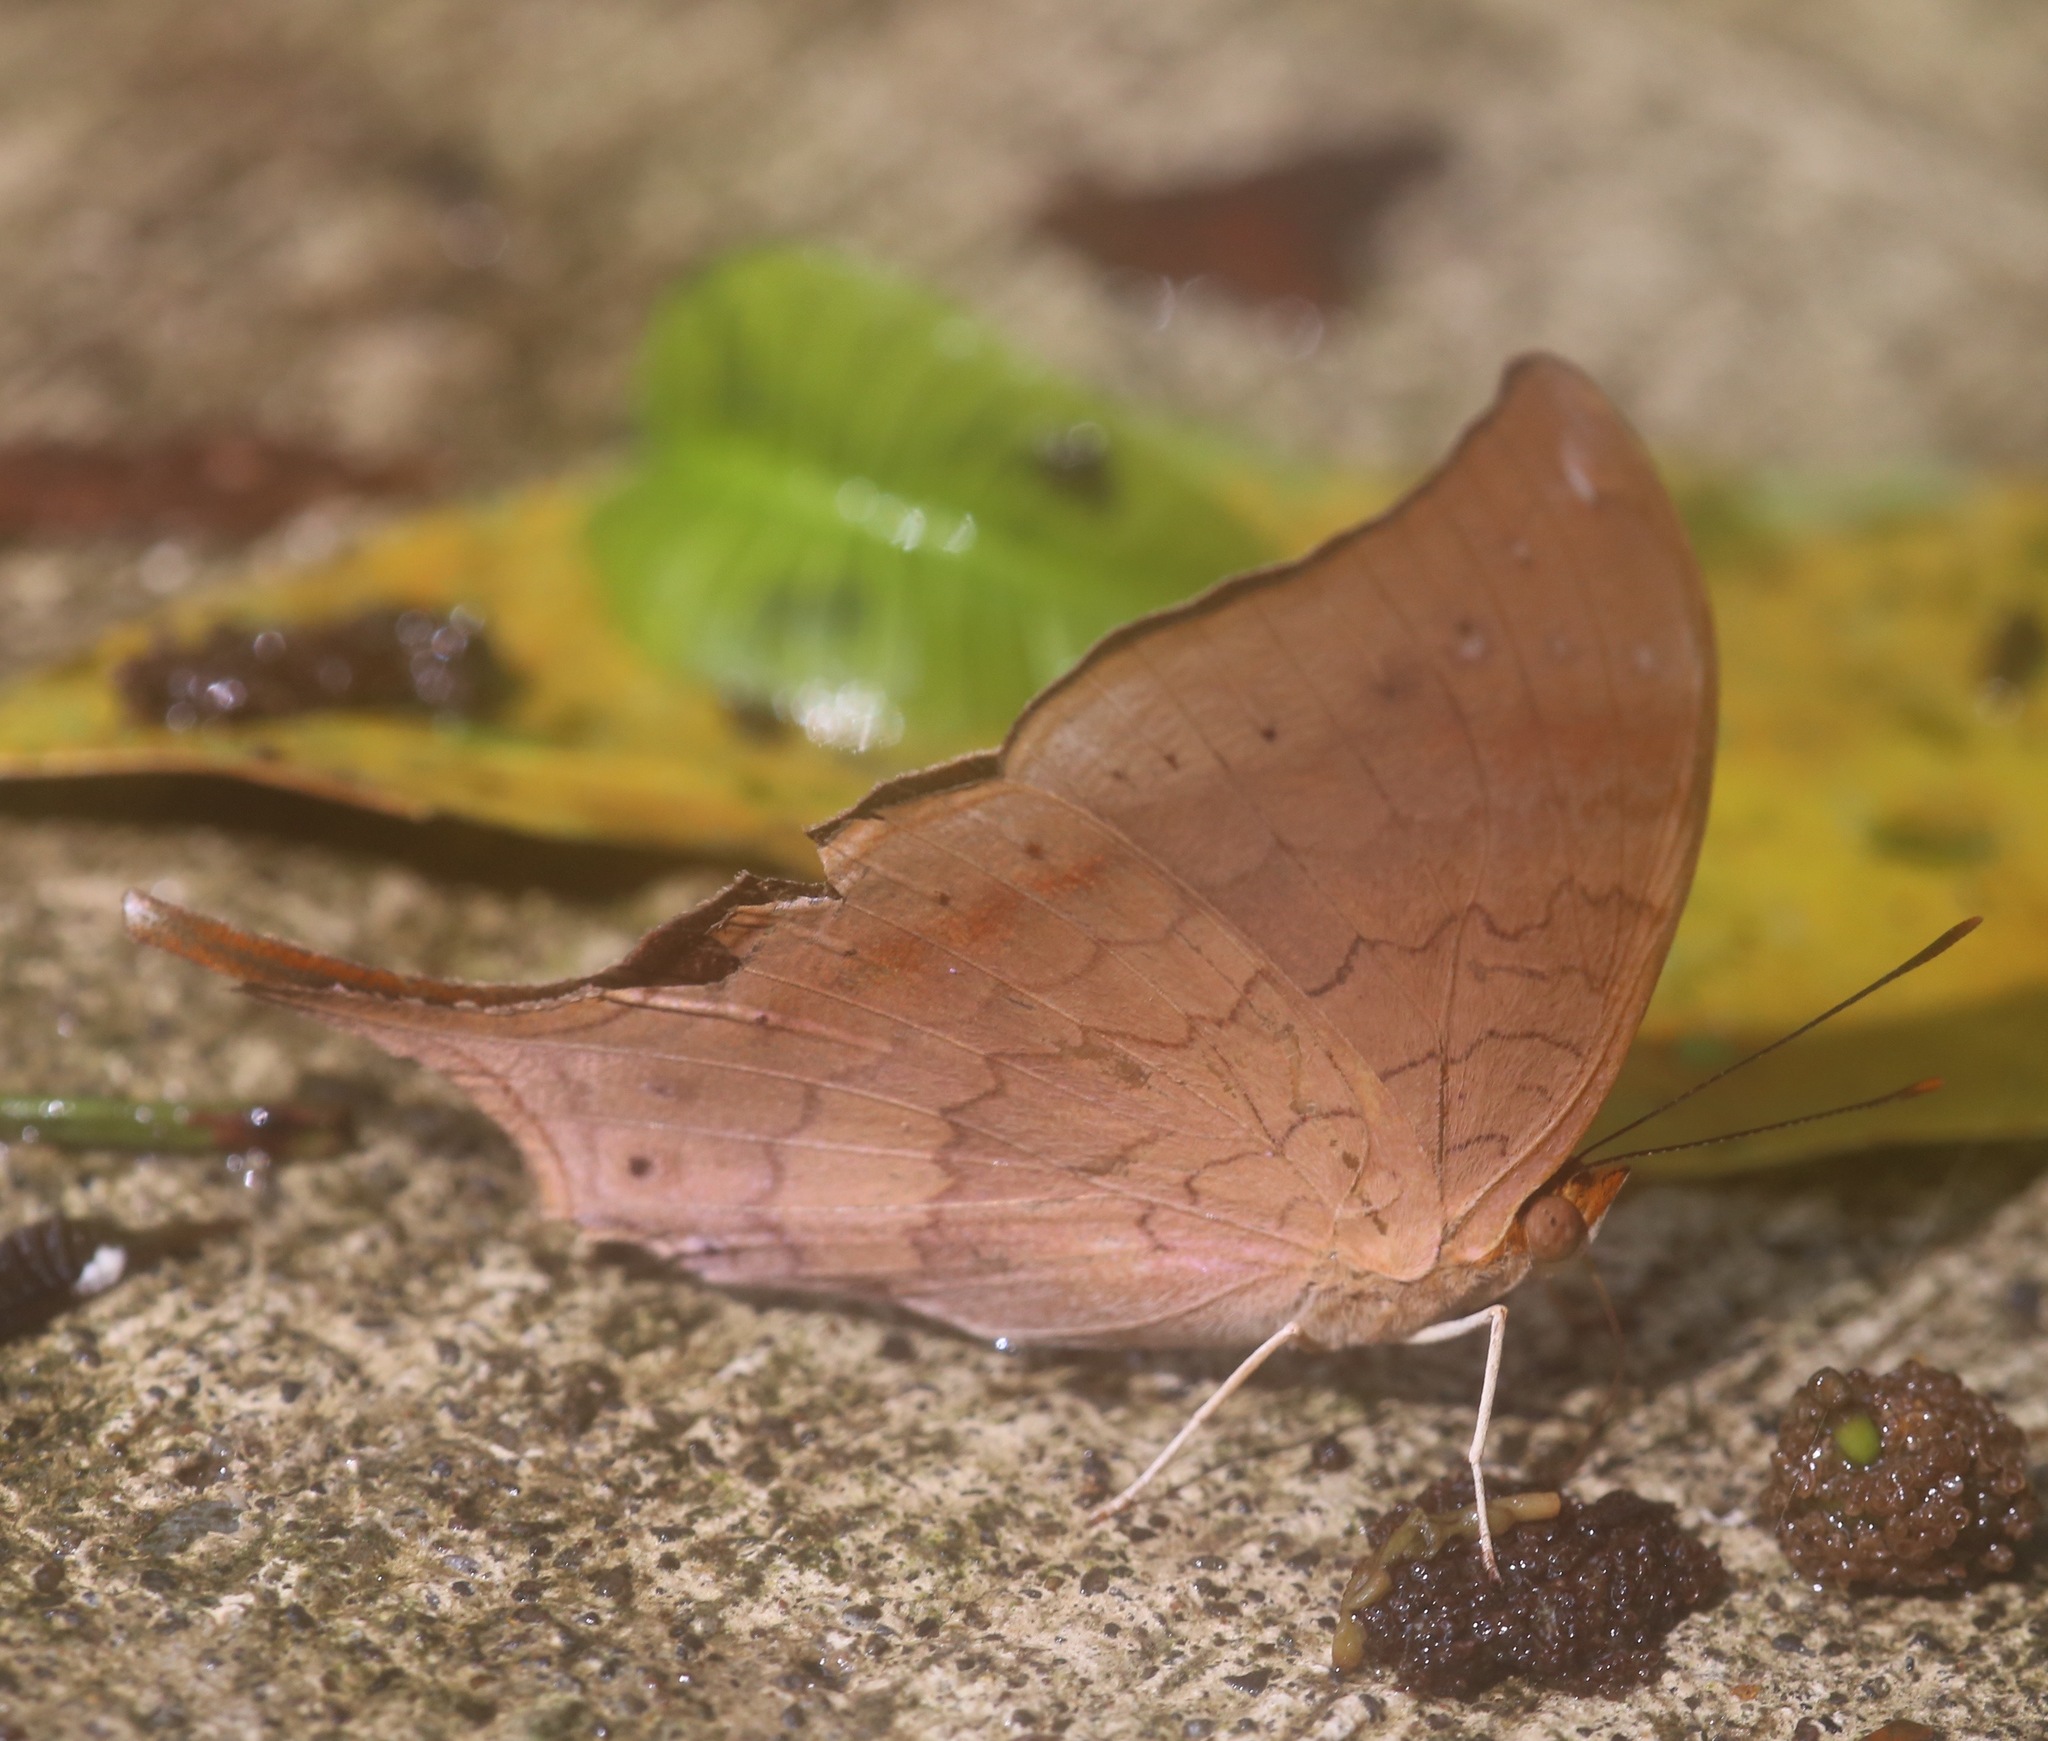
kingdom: Animalia
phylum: Arthropoda
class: Insecta
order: Lepidoptera
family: Nymphalidae
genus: Marpesia
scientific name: Marpesia furcula
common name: Sunset daggerwing
